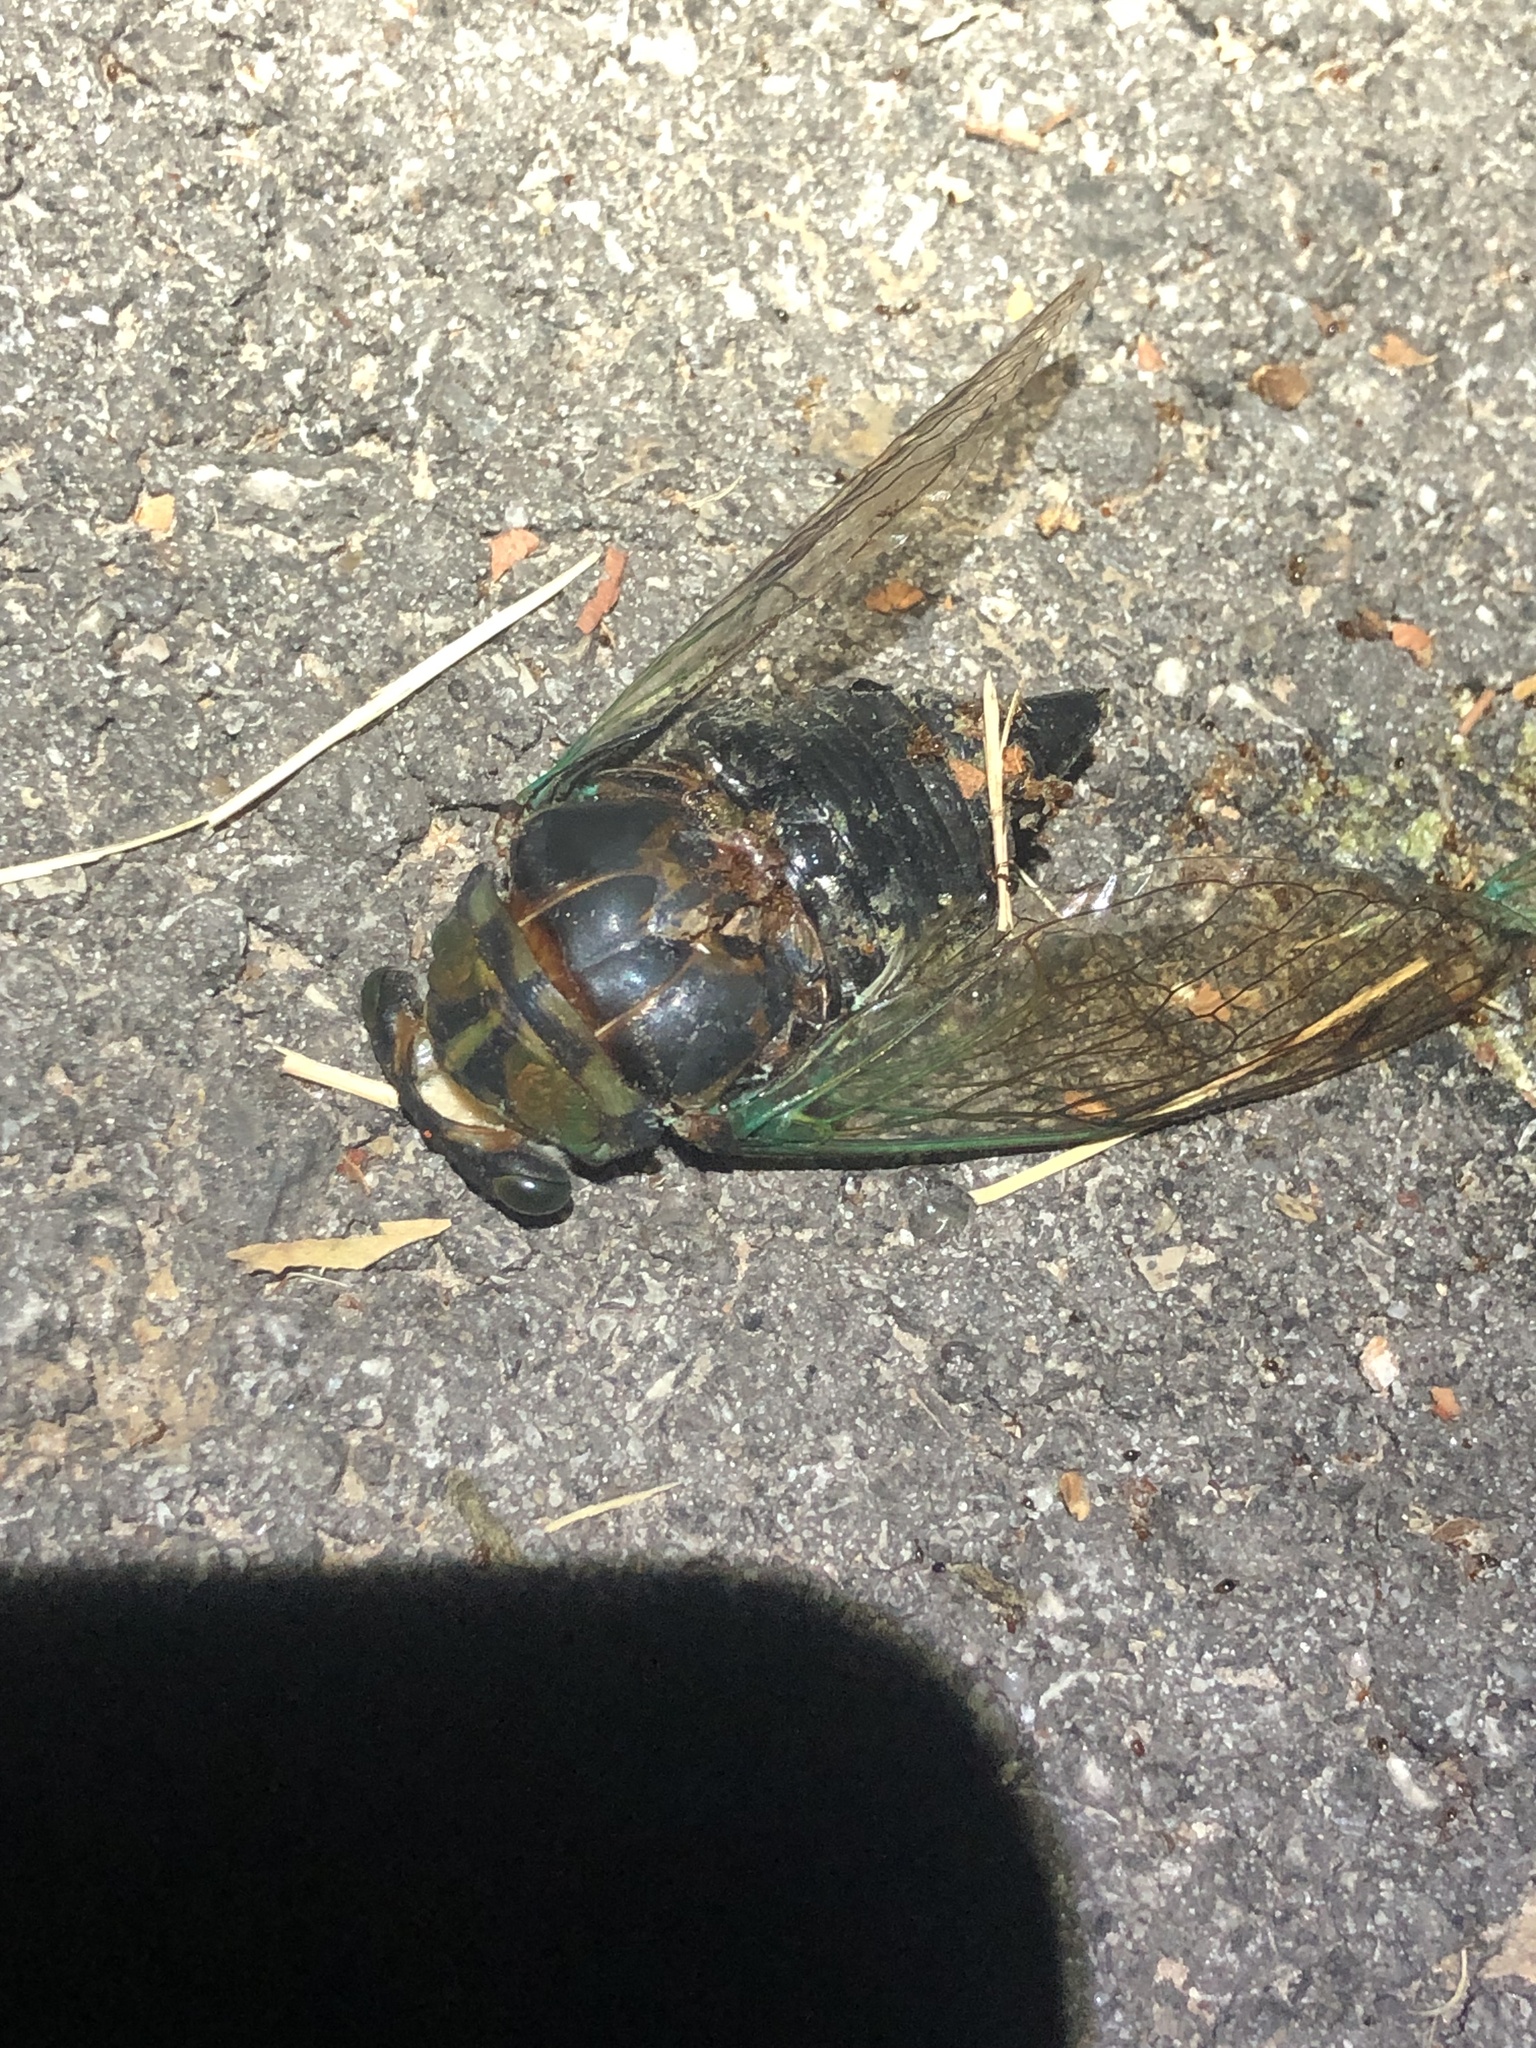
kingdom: Animalia
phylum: Arthropoda
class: Insecta
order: Hemiptera
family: Cicadidae
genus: Neotibicen
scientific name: Neotibicen tibicen
